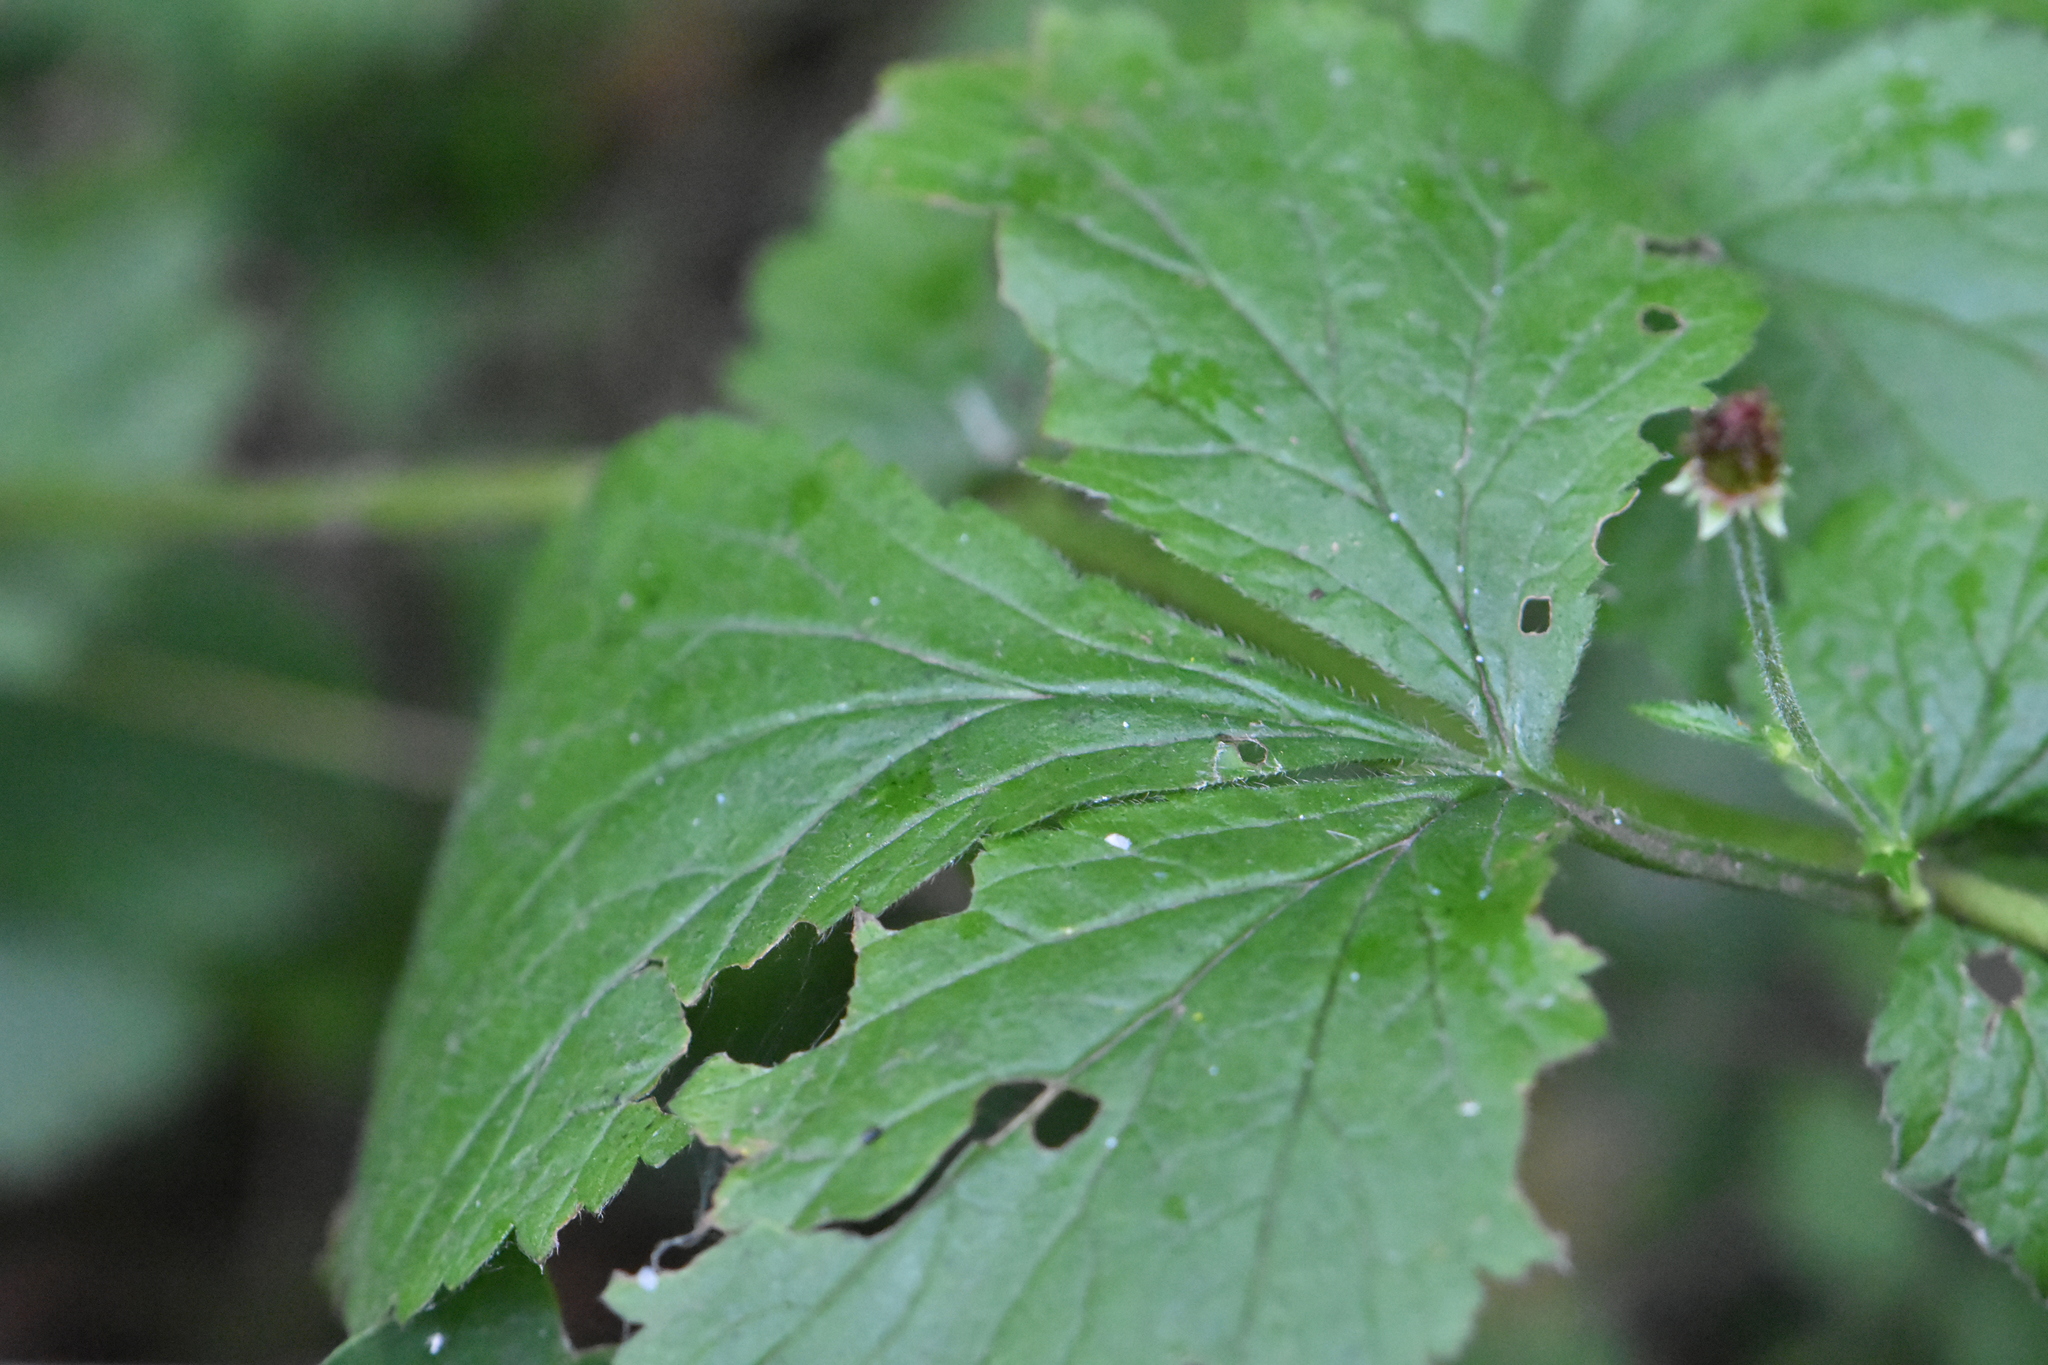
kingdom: Plantae
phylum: Tracheophyta
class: Magnoliopsida
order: Rosales
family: Rosaceae
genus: Geum
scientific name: Geum urbanum
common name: Wood avens
